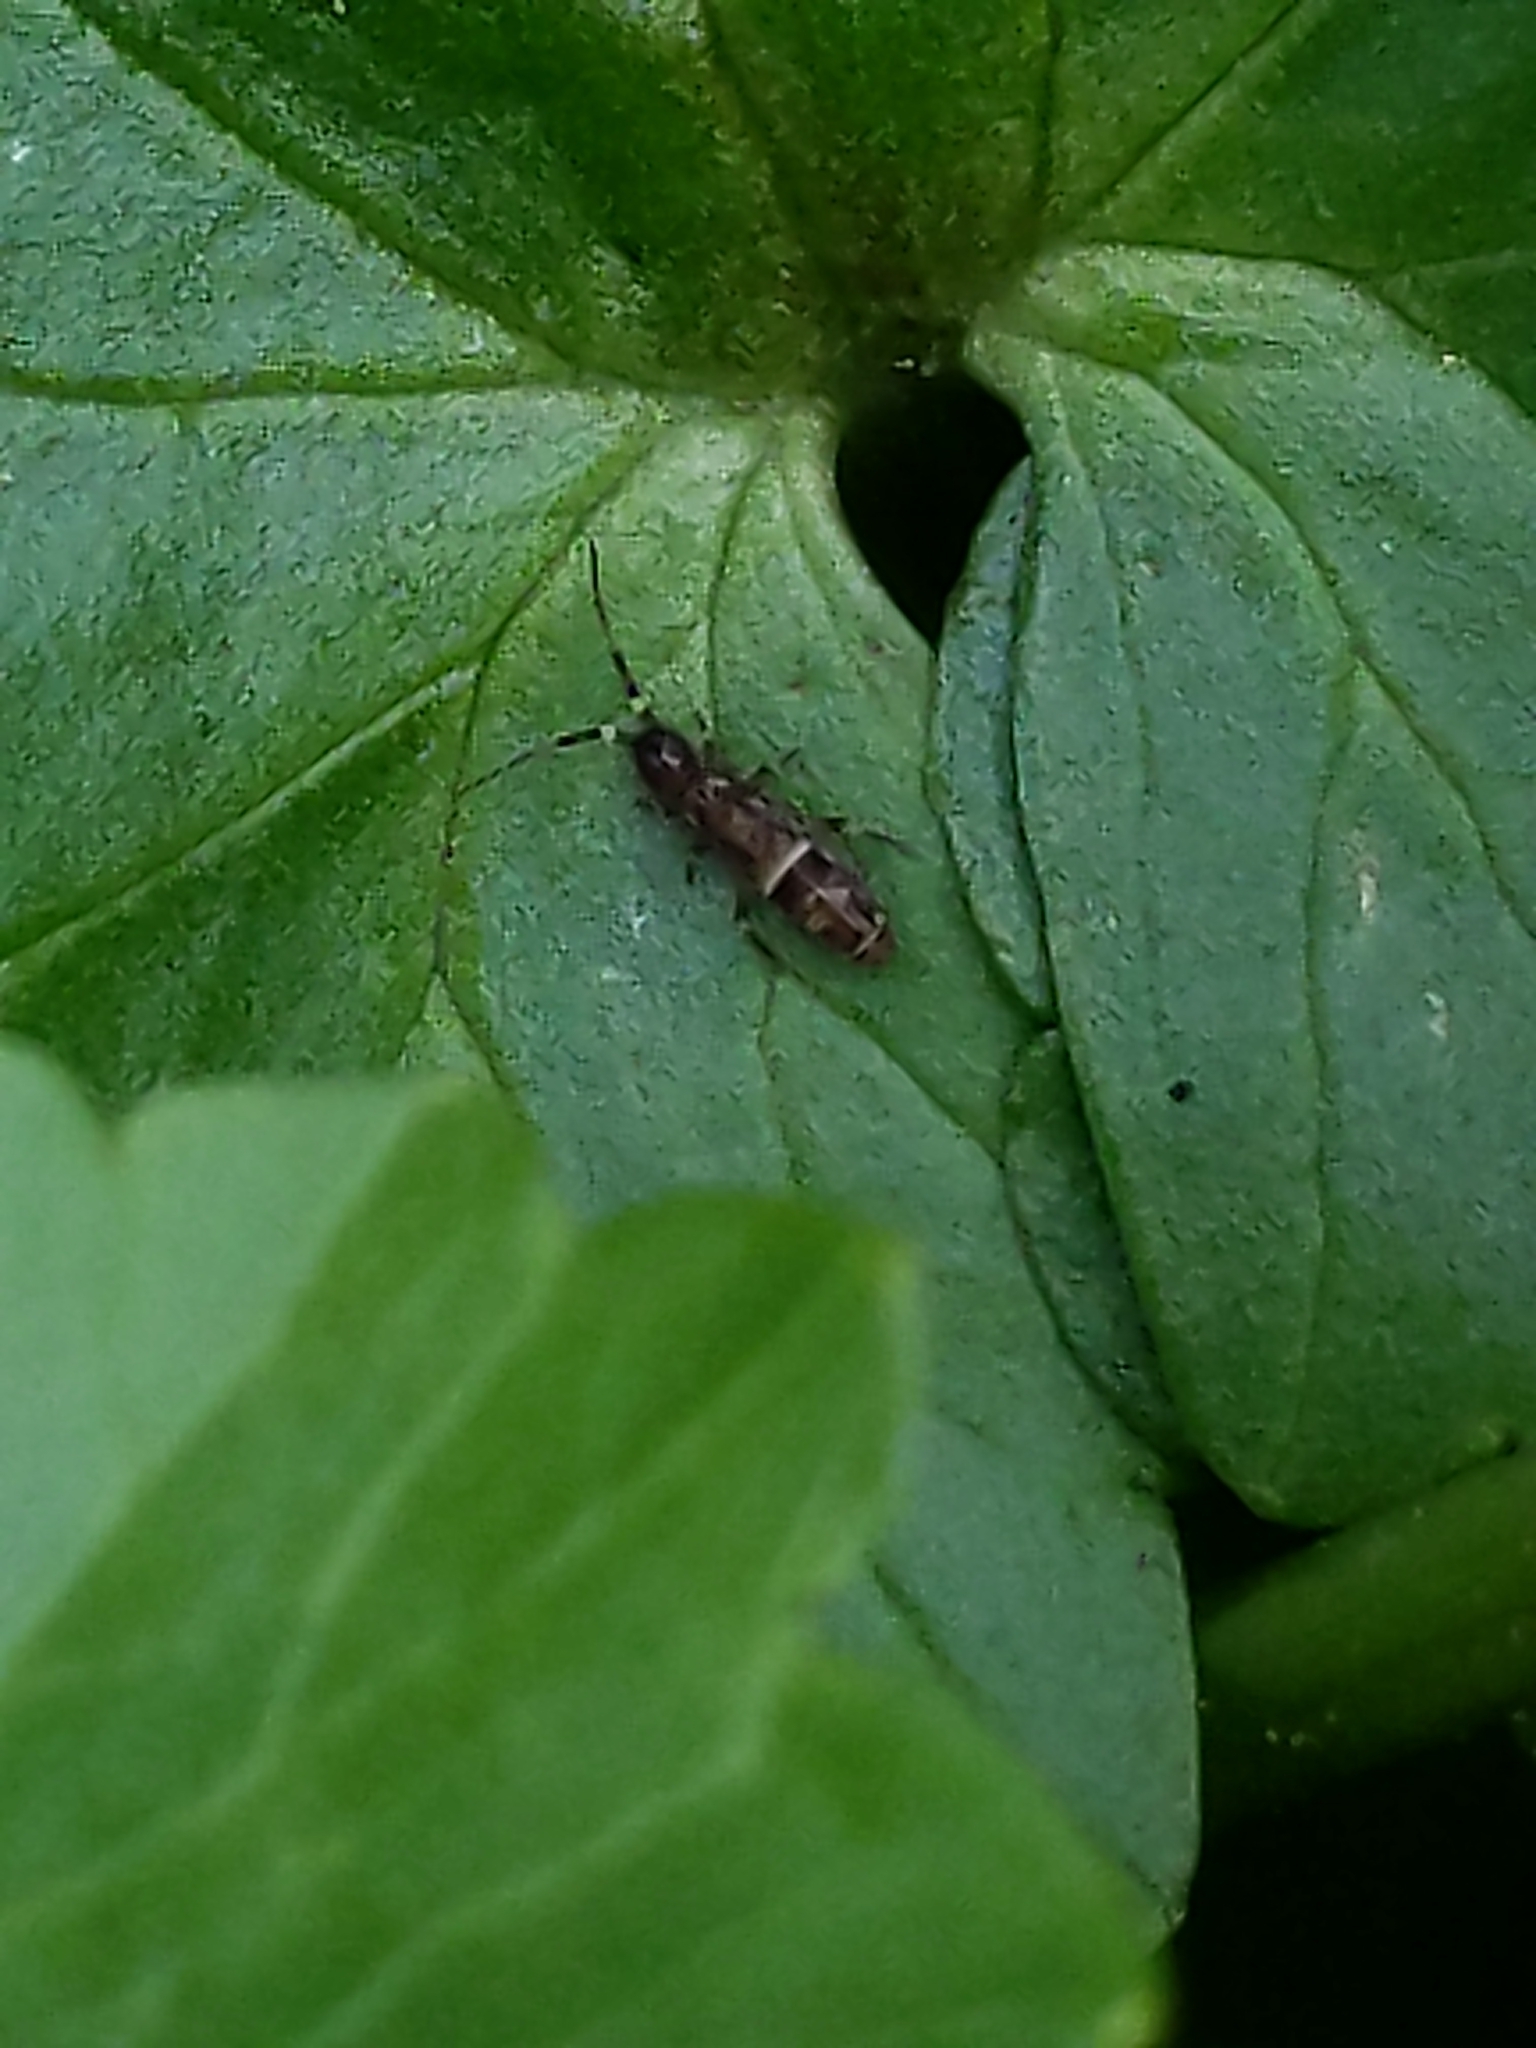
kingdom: Animalia
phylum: Arthropoda
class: Collembola
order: Entomobryomorpha
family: Orchesellidae
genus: Orchesella
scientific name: Orchesella cincta
